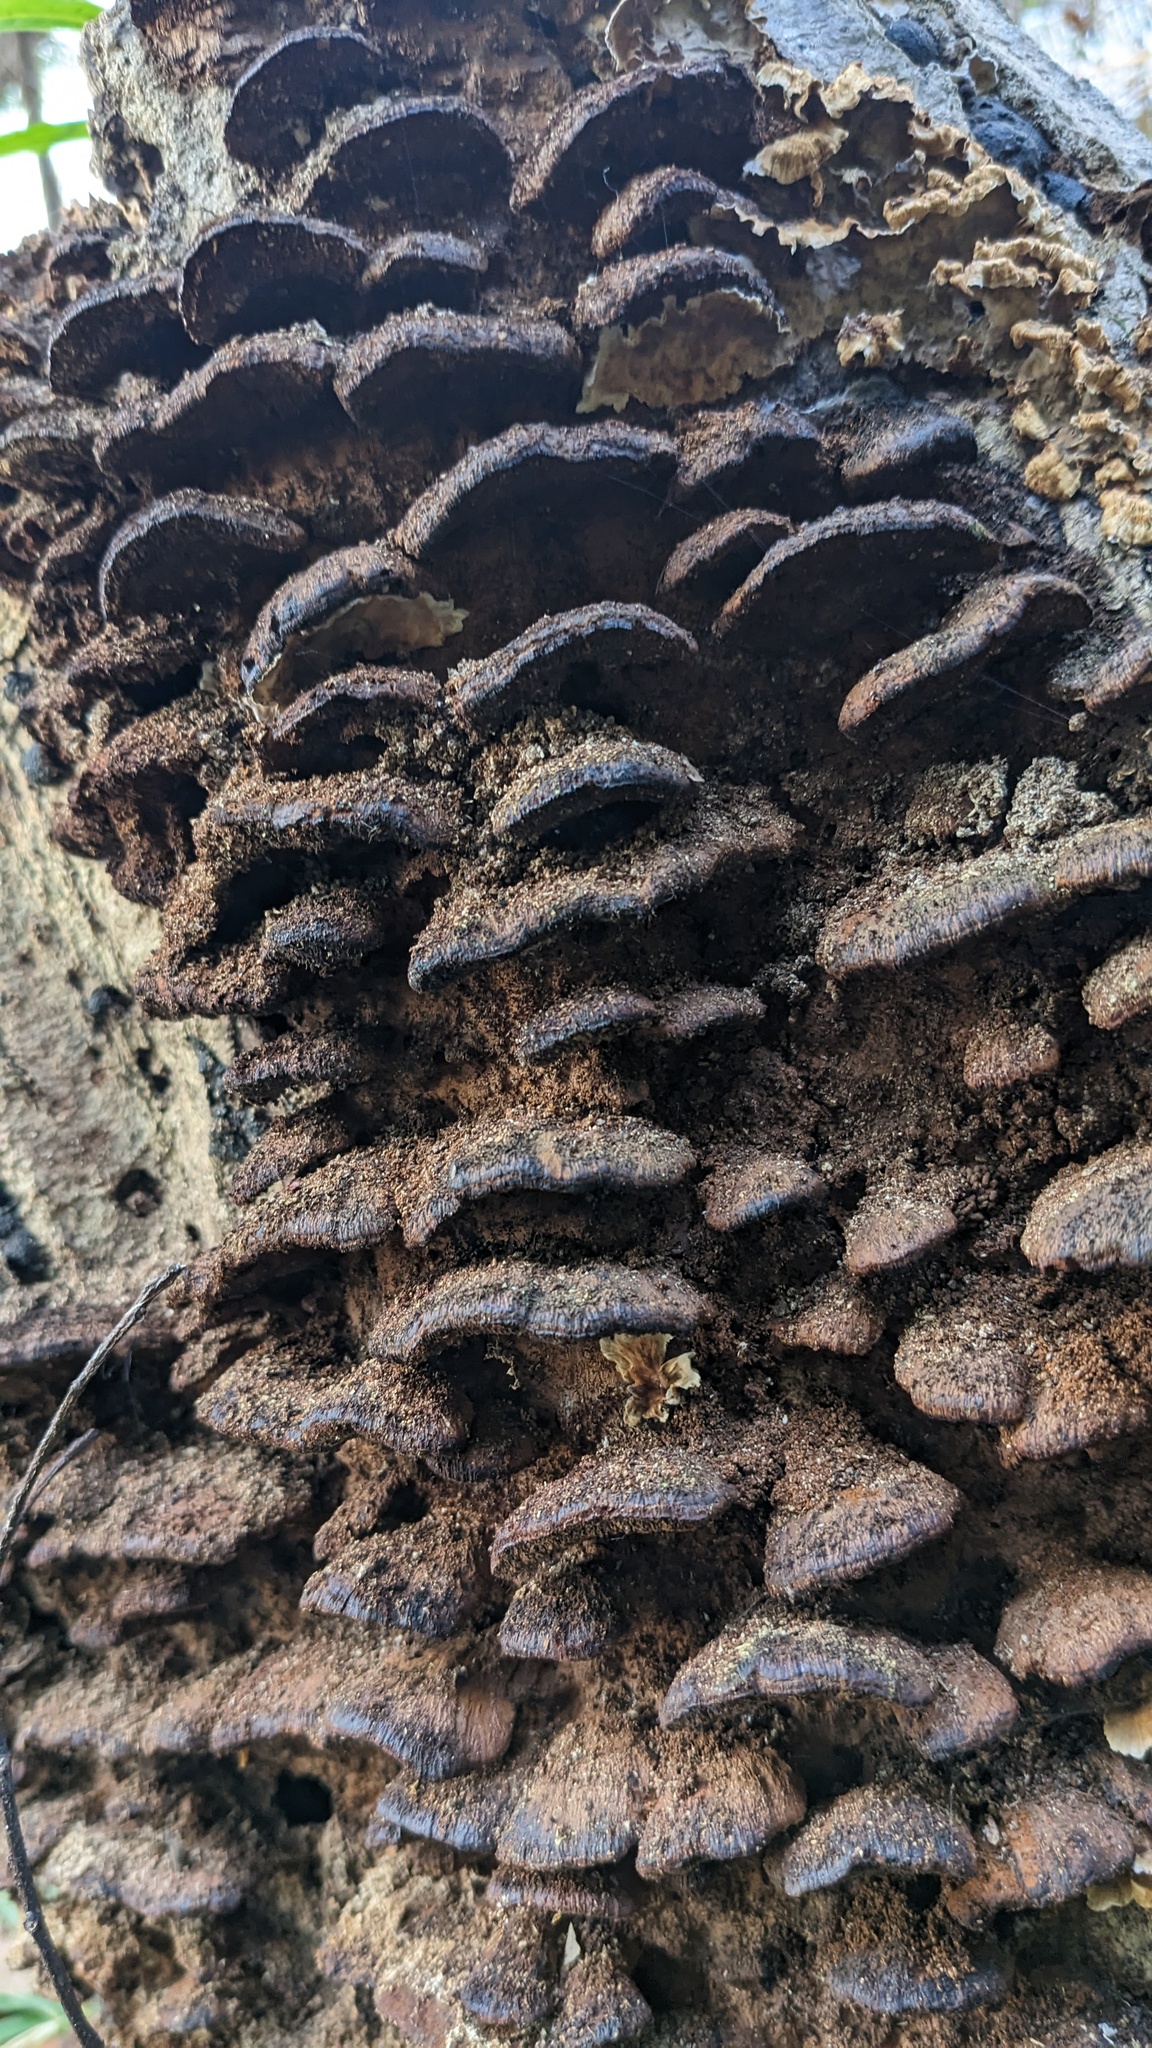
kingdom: Fungi
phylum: Basidiomycota
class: Agaricomycetes
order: Hymenochaetales
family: Hymenochaetaceae
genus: Phellinus
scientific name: Phellinus gilvus
